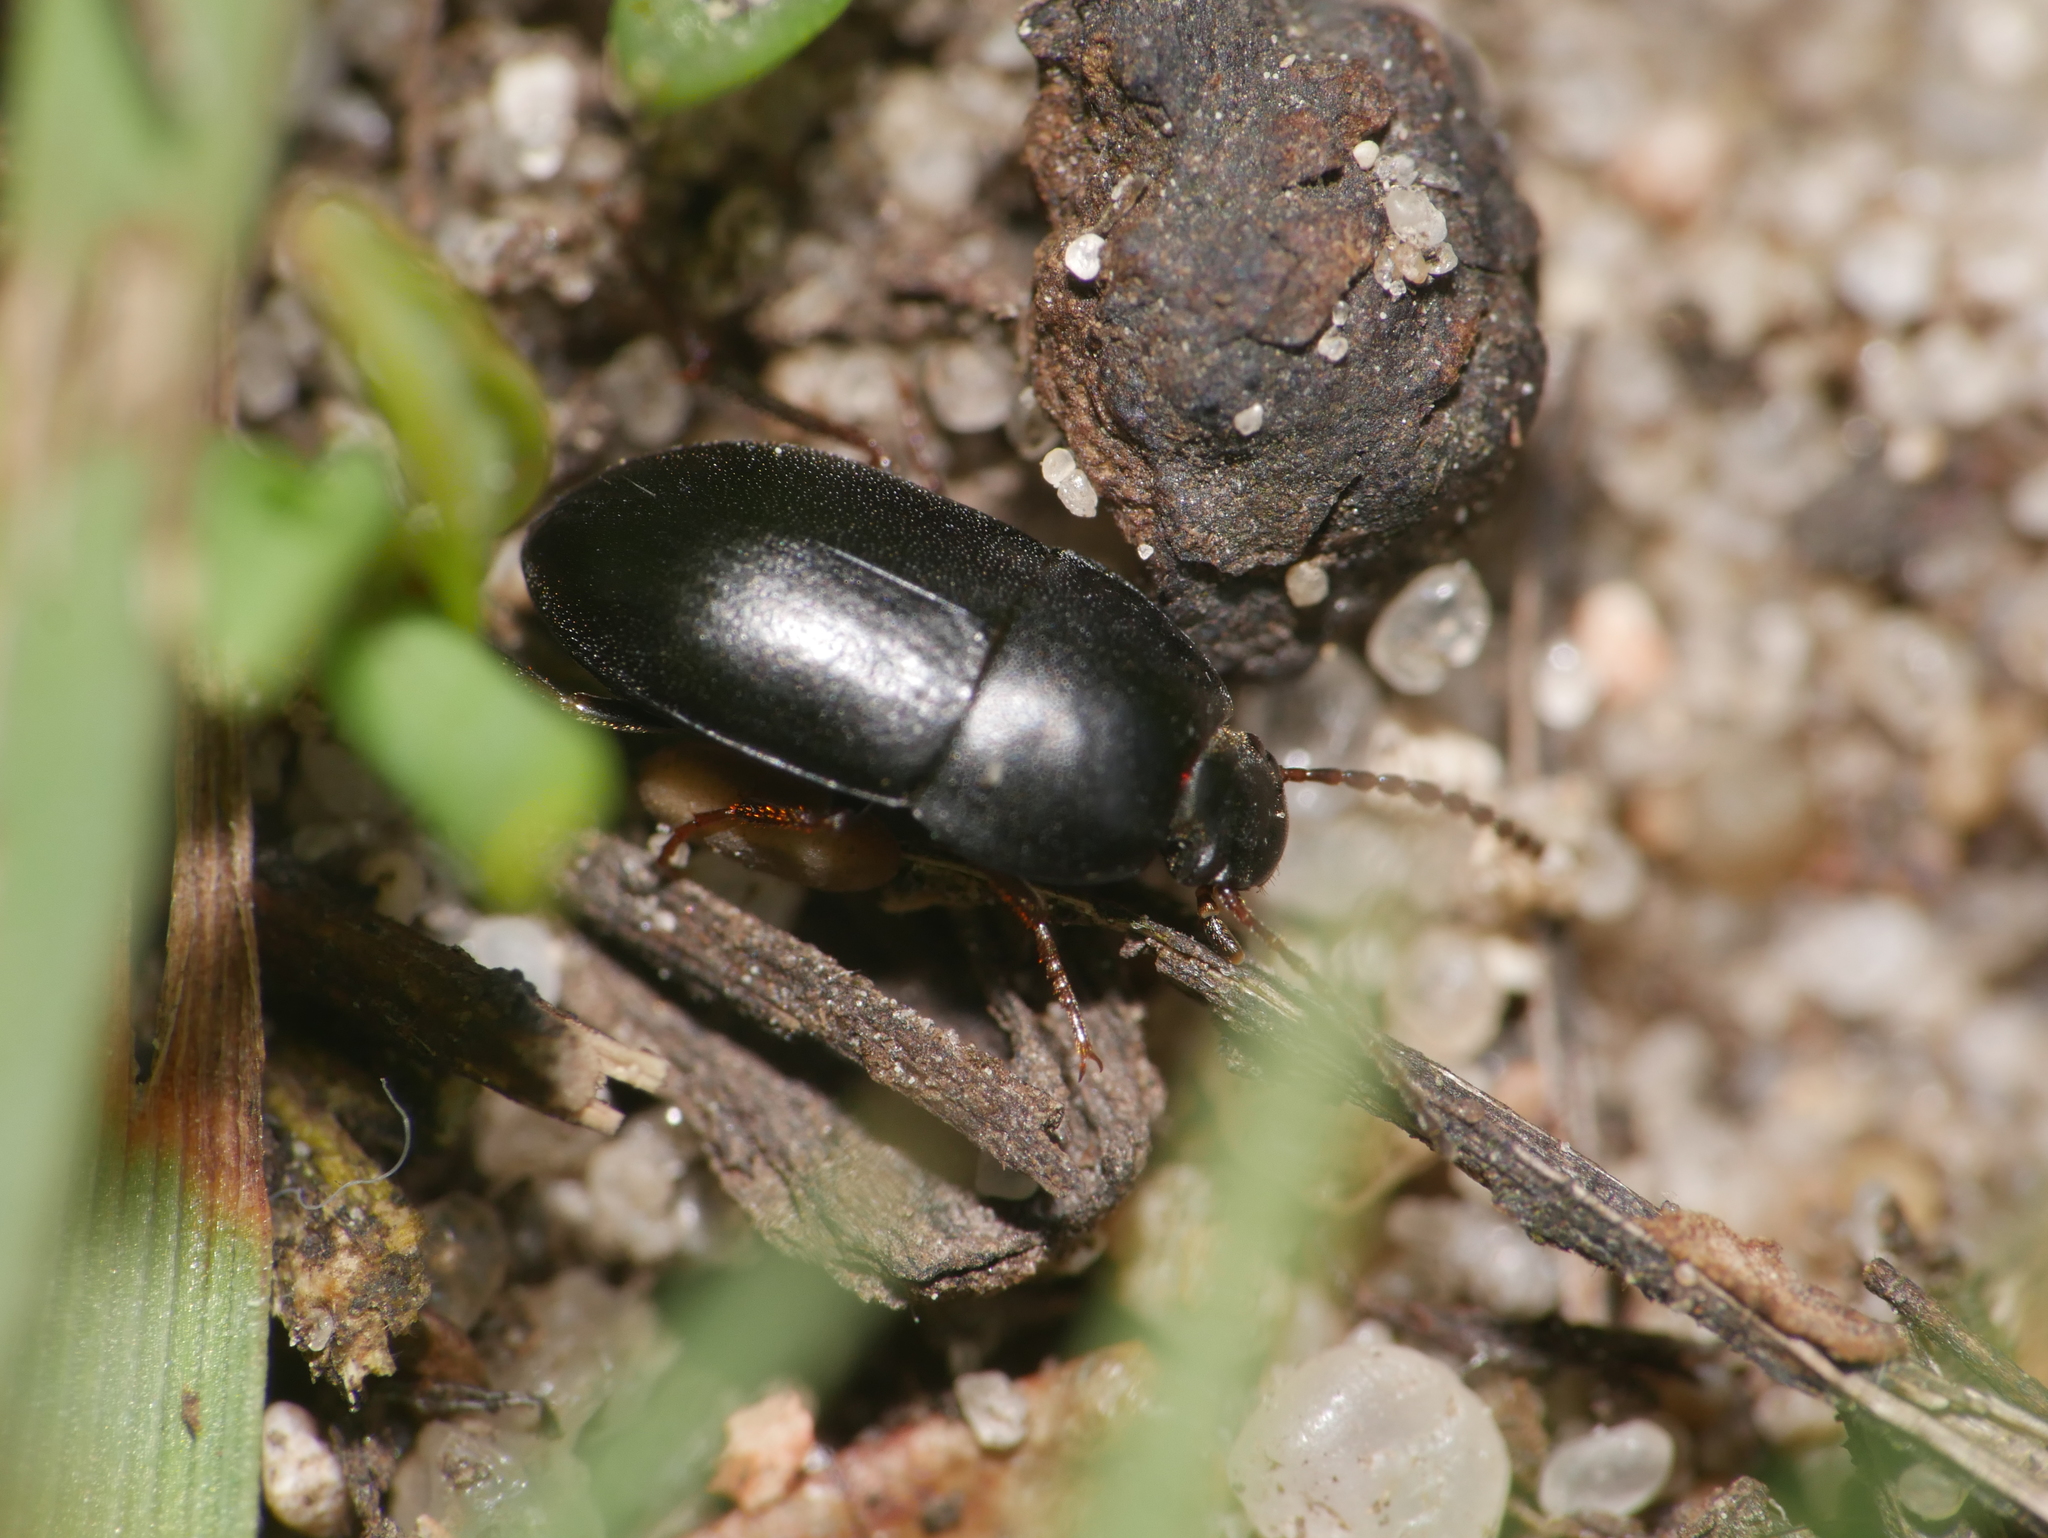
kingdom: Animalia
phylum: Arthropoda
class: Insecta
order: Coleoptera
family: Tenebrionidae
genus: Crypticus
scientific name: Crypticus quisquilius
